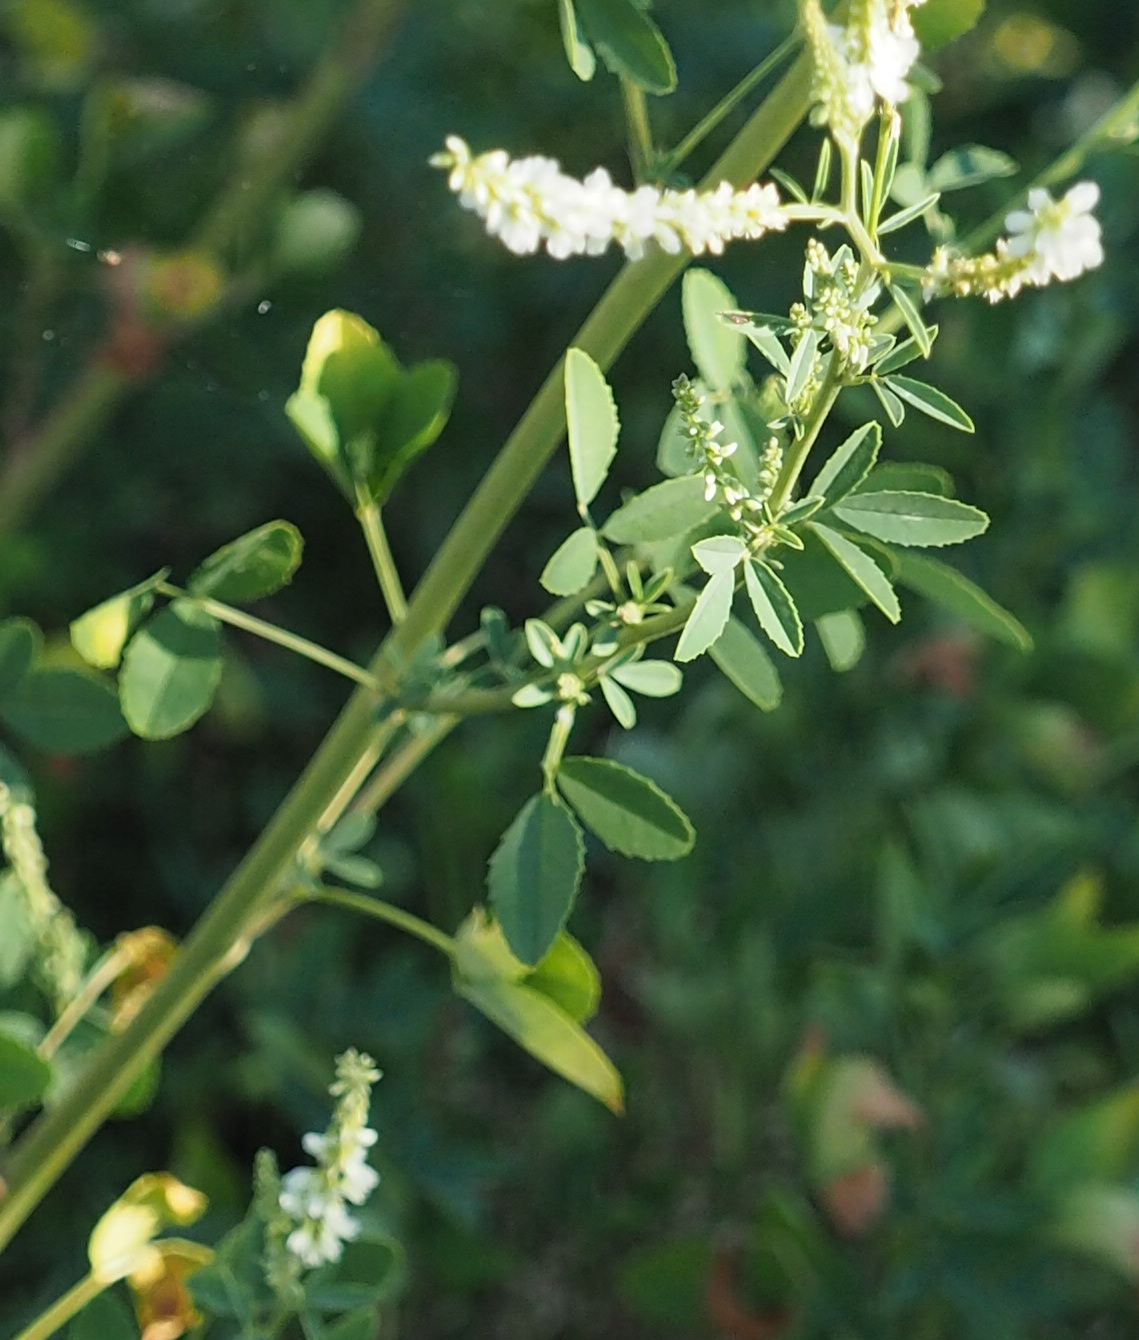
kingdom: Plantae
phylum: Tracheophyta
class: Magnoliopsida
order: Fabales
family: Fabaceae
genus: Melilotus
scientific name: Melilotus albus
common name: White melilot
